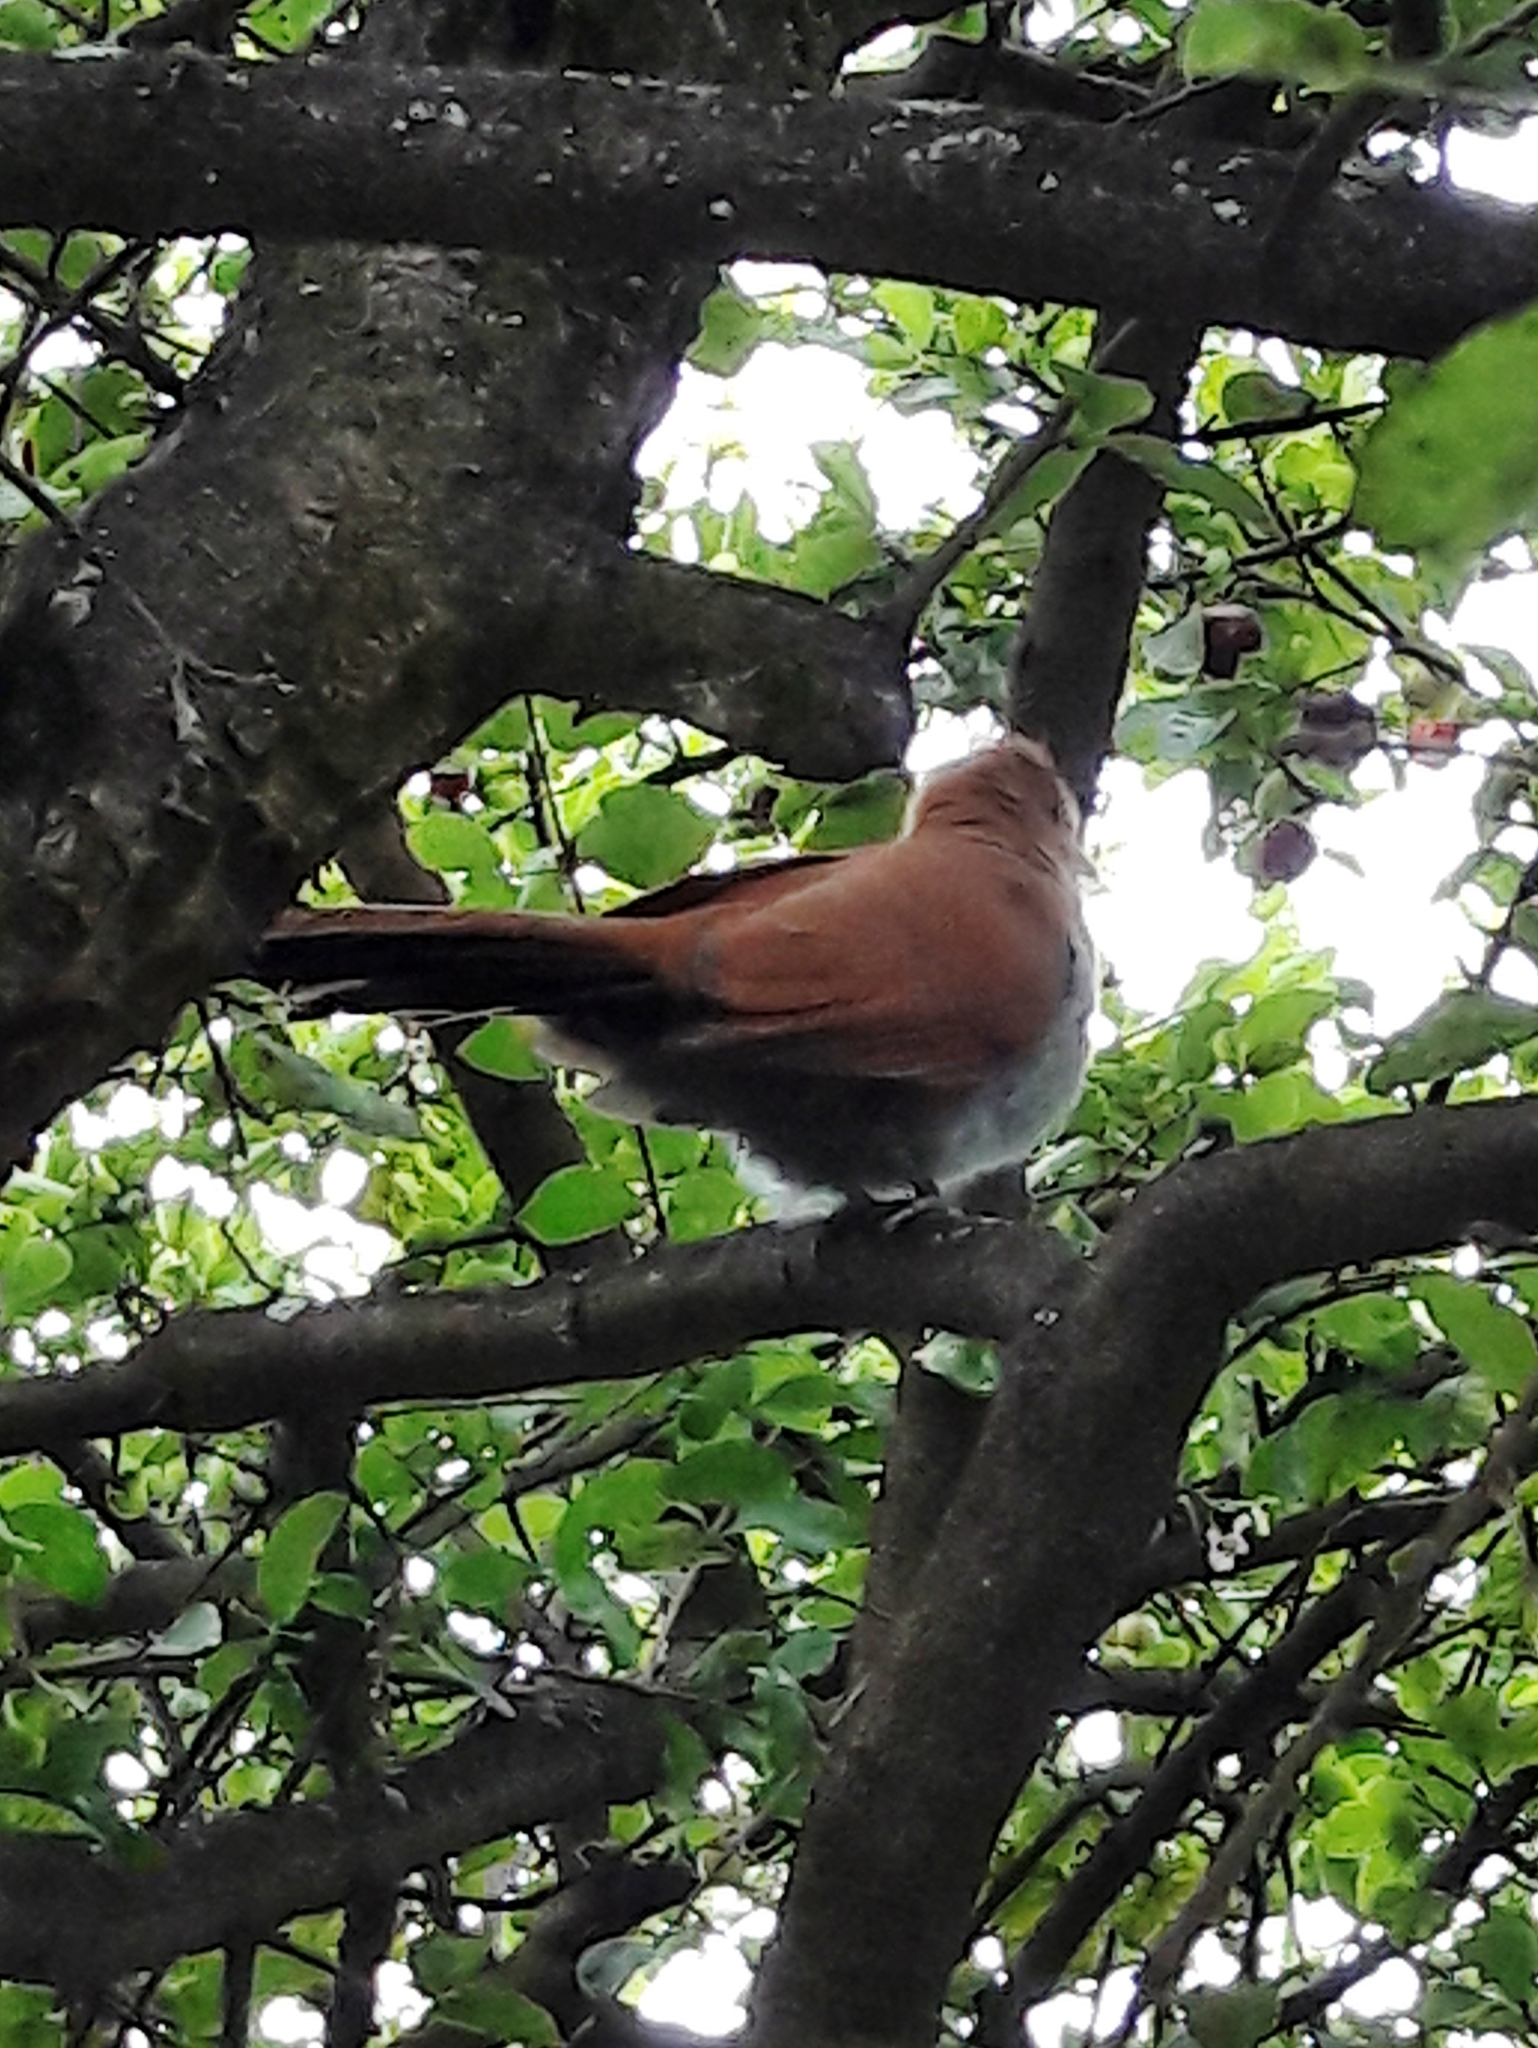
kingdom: Animalia
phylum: Chordata
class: Aves
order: Cuculiformes
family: Cuculidae
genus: Piaya
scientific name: Piaya cayana
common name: Squirrel cuckoo
